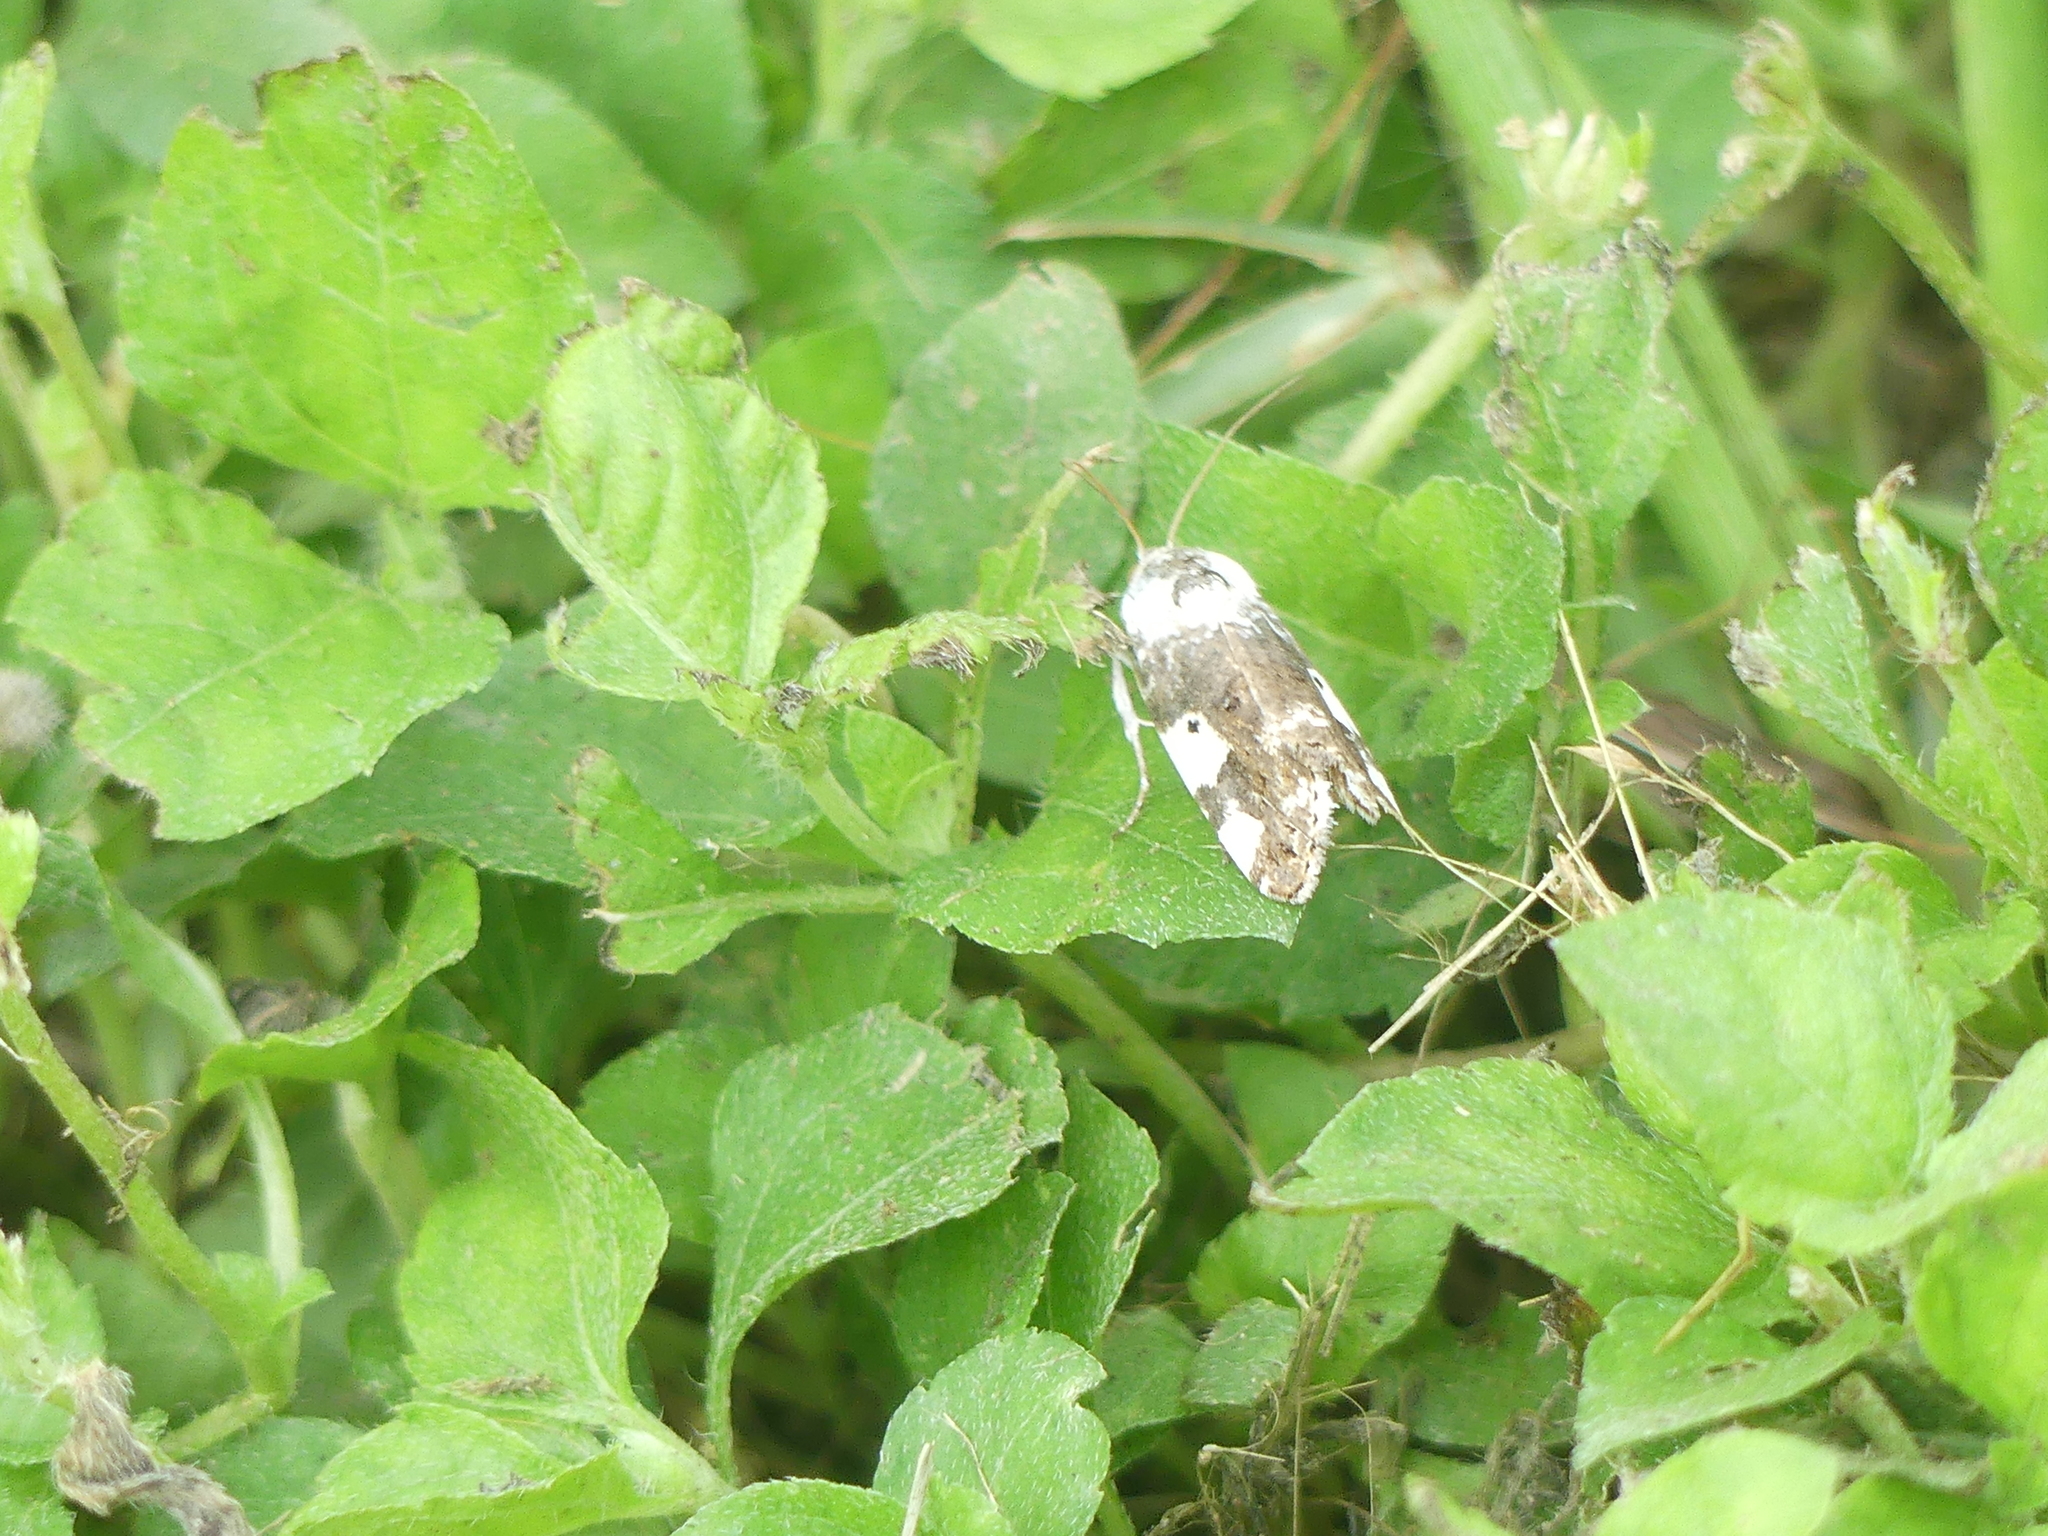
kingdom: Animalia
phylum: Arthropoda
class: Insecta
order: Lepidoptera
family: Noctuidae
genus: Acontia
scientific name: Acontia aprica
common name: Nun
